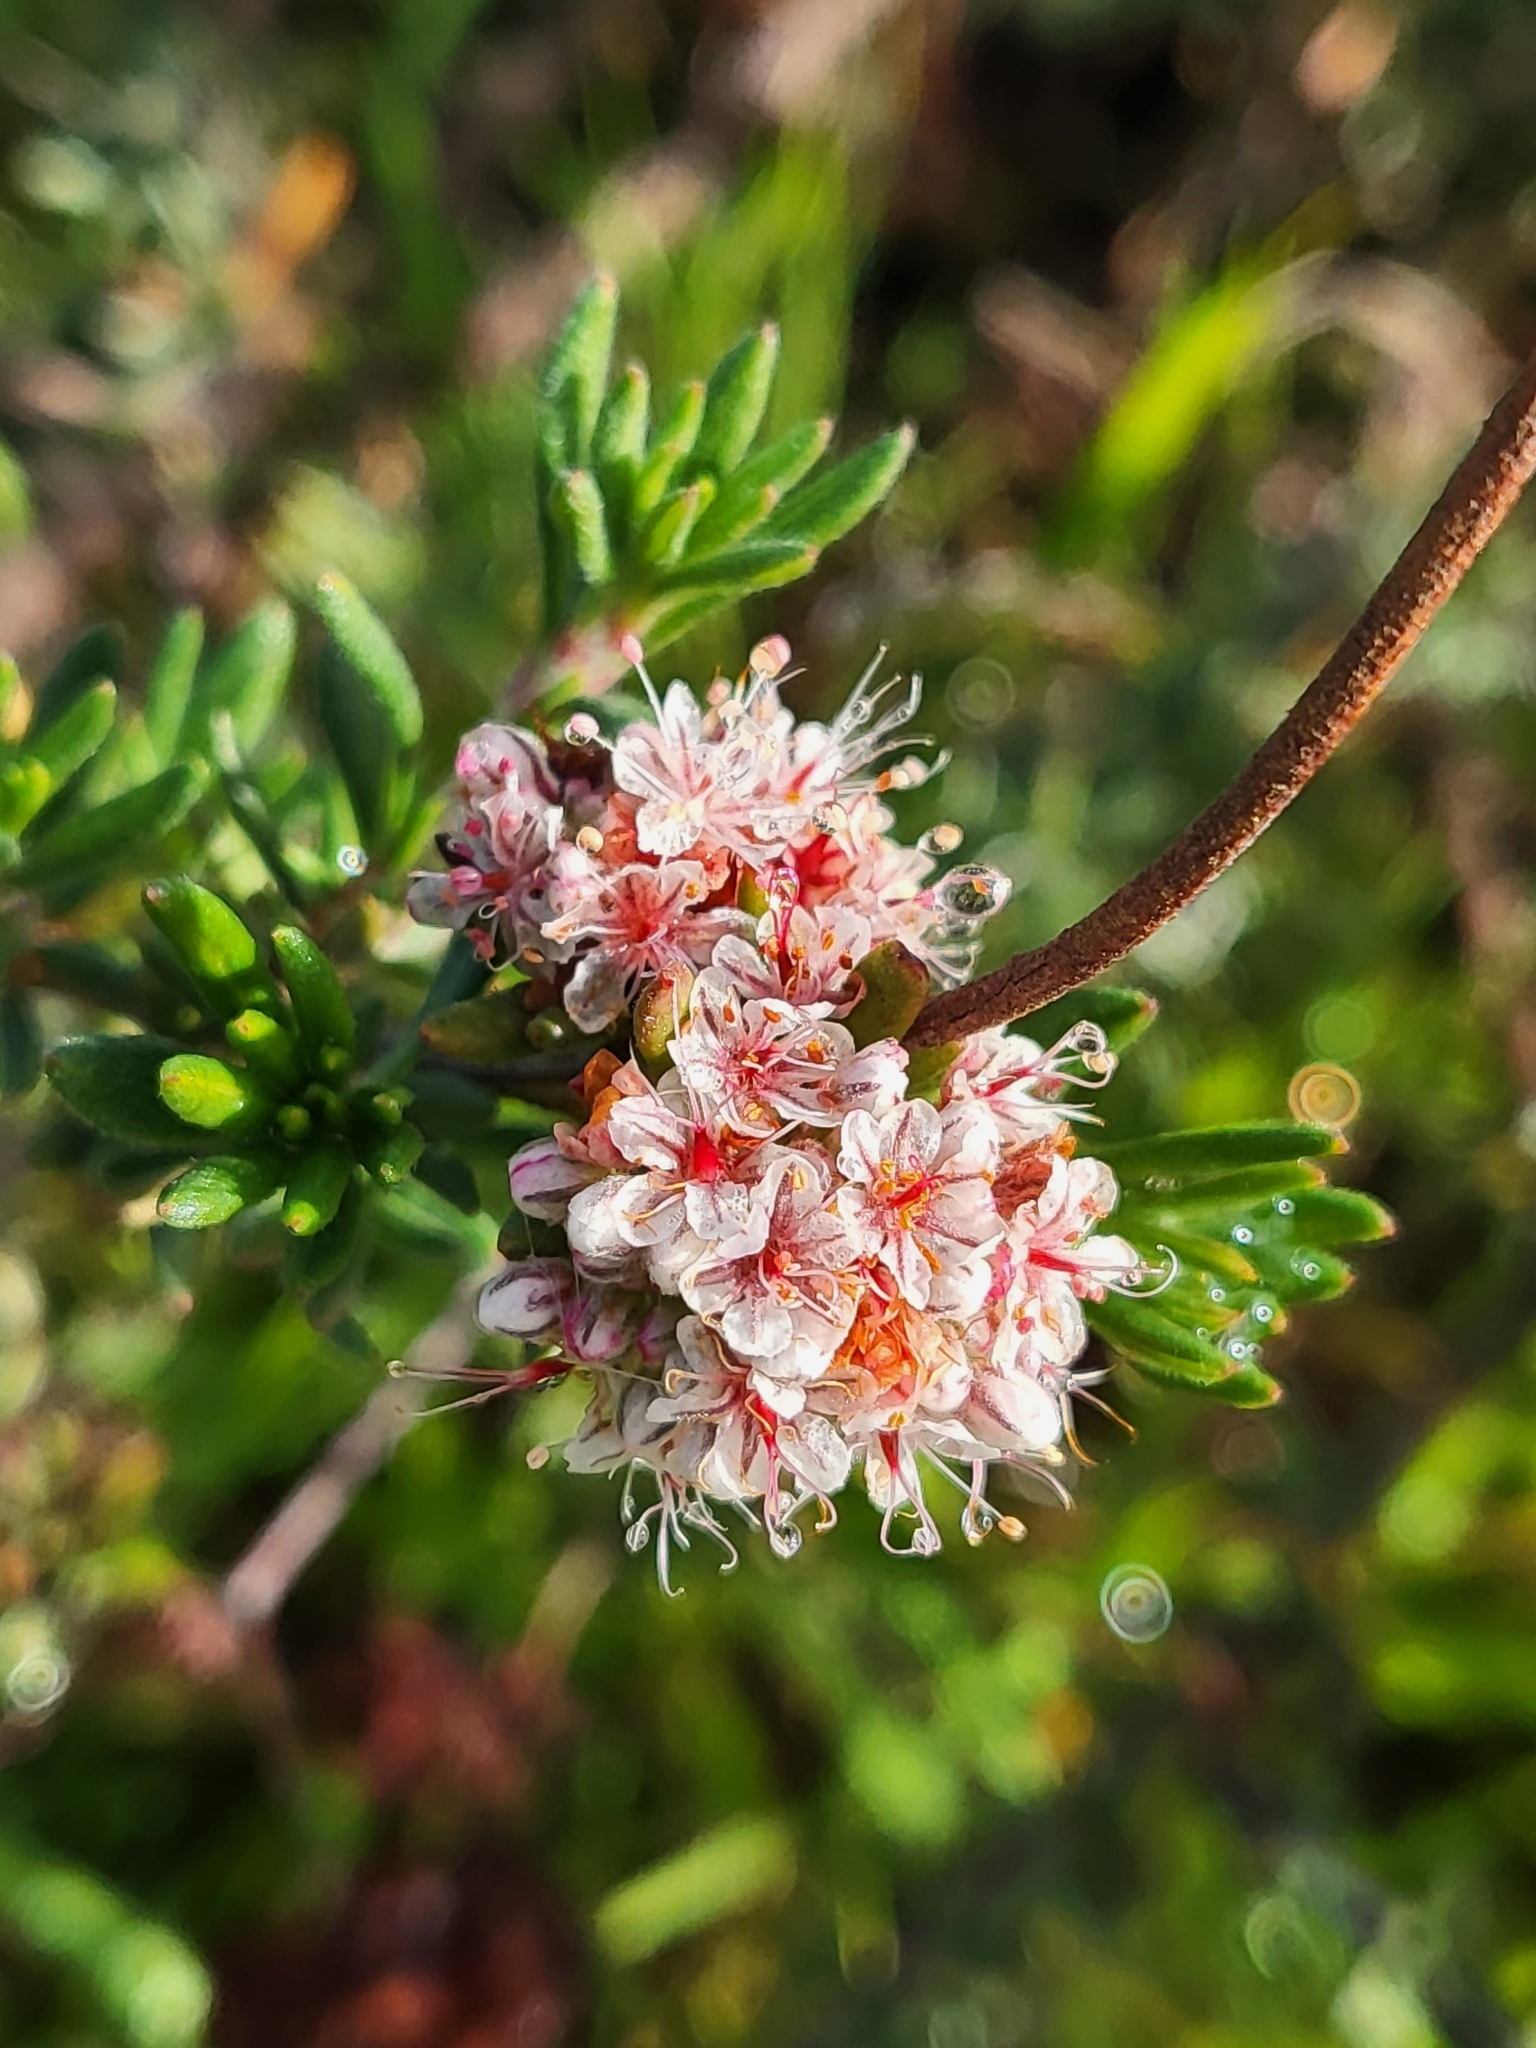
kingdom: Plantae
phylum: Tracheophyta
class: Magnoliopsida
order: Caryophyllales
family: Polygonaceae
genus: Eriogonum
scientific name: Eriogonum fasciculatum
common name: California wild buckwheat
